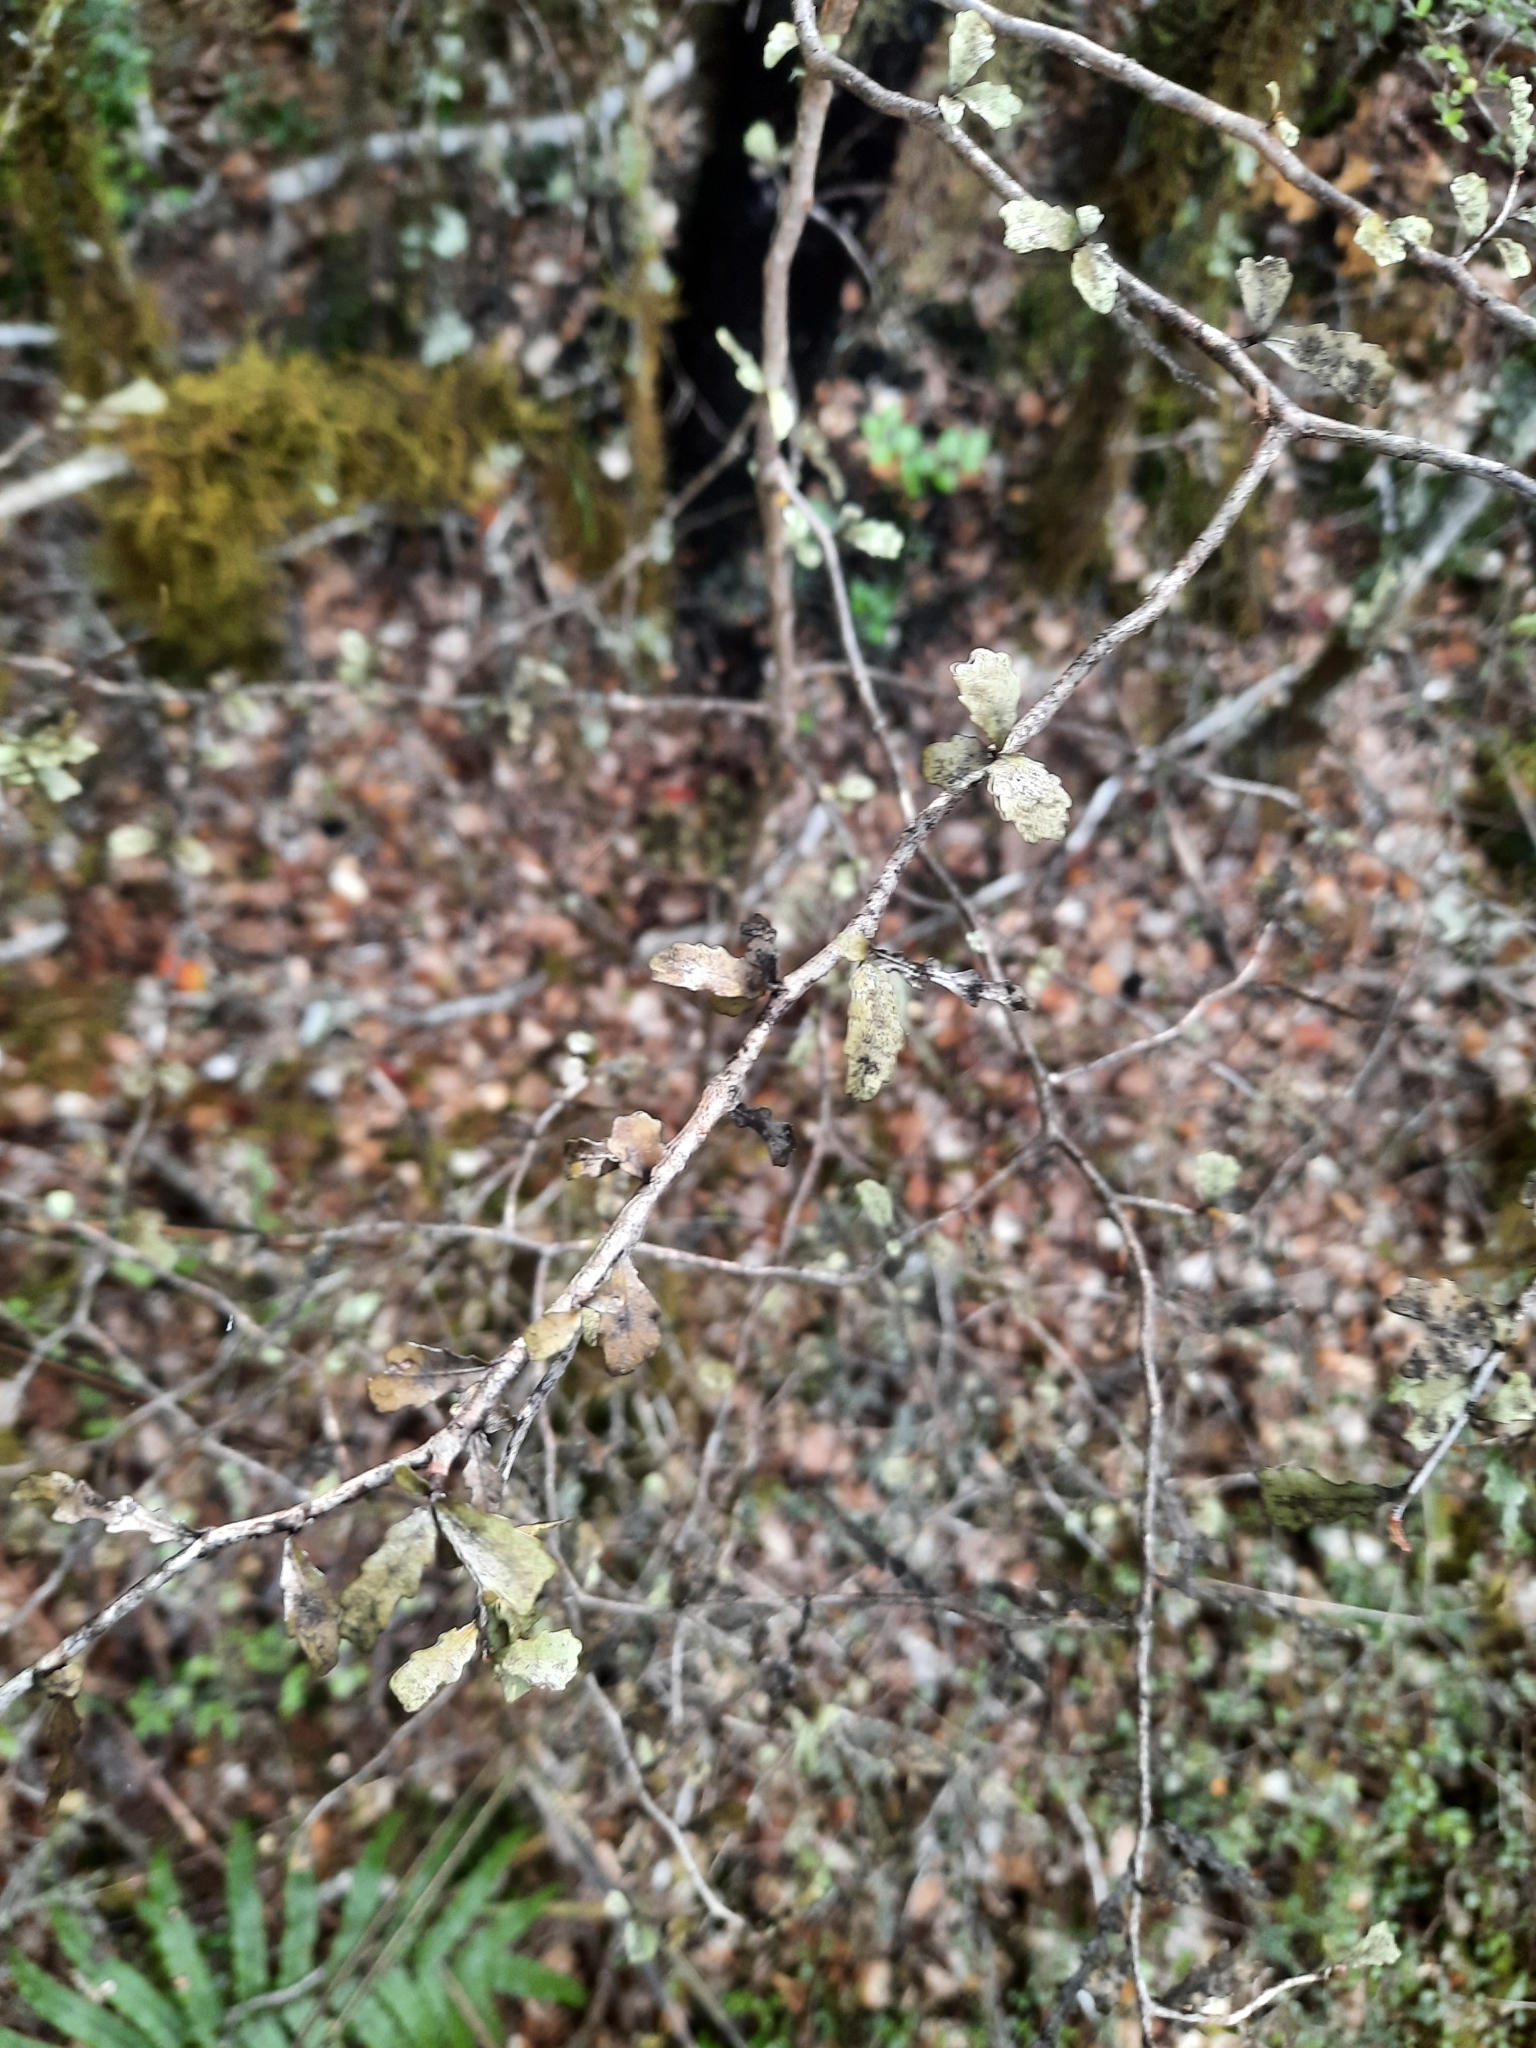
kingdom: Plantae
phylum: Tracheophyta
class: Magnoliopsida
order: Oxalidales
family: Elaeocarpaceae
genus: Elaeocarpus
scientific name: Elaeocarpus hookerianus
